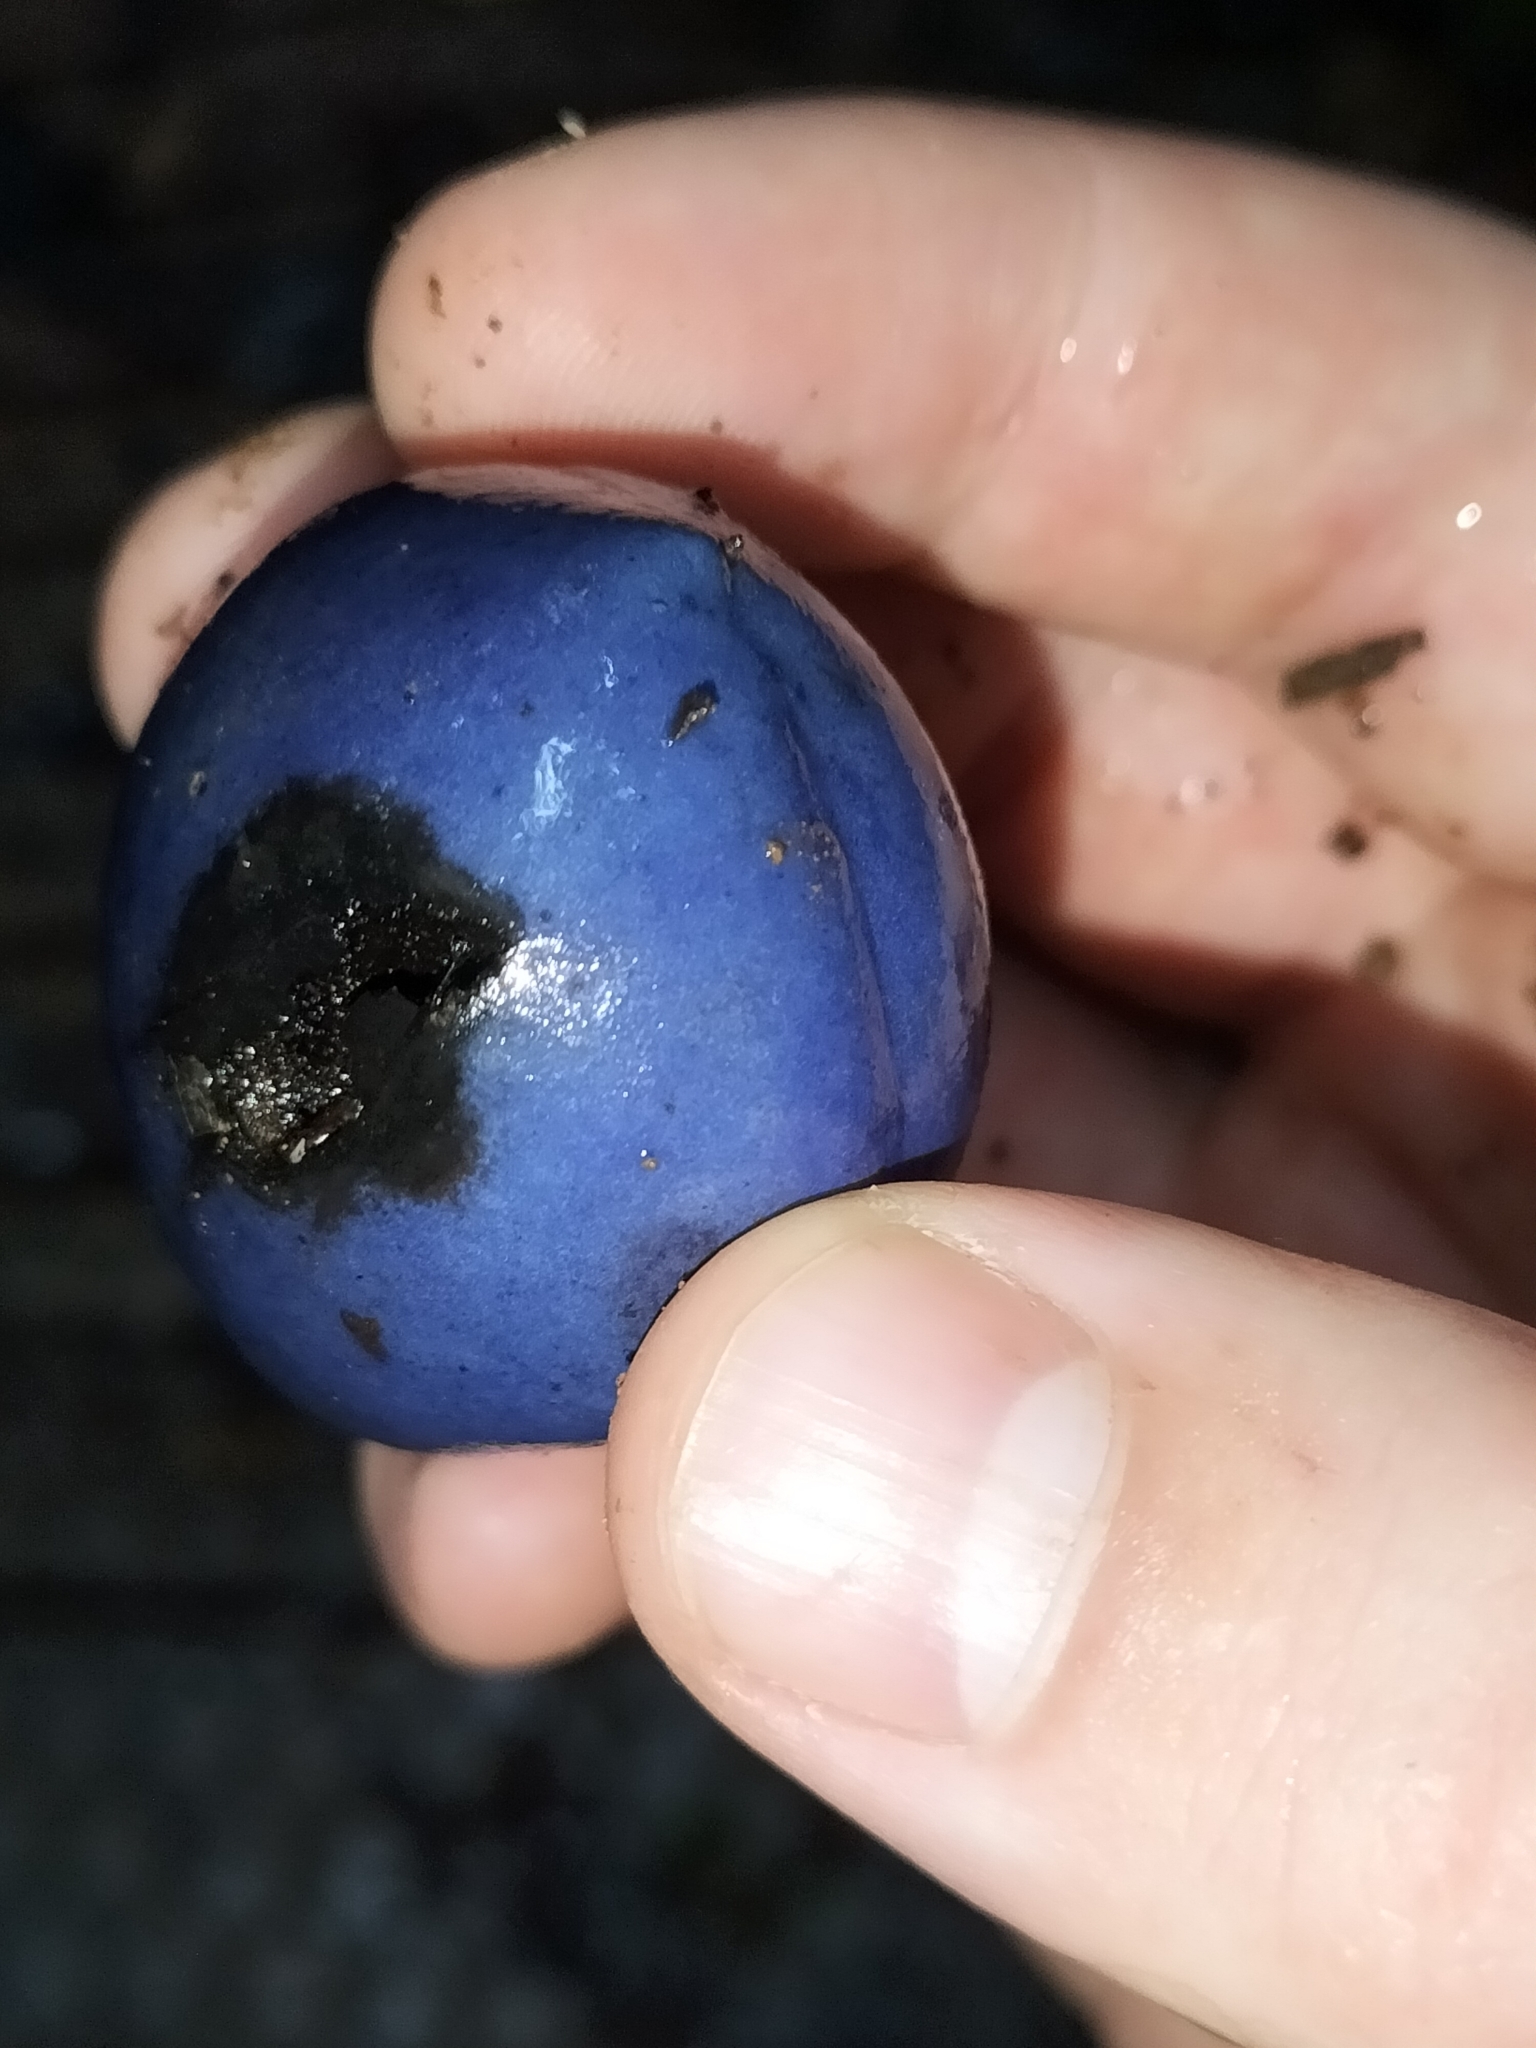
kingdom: Plantae
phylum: Tracheophyta
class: Magnoliopsida
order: Proteales
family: Proteaceae
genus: Athertonia
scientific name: Athertonia diversifolia
